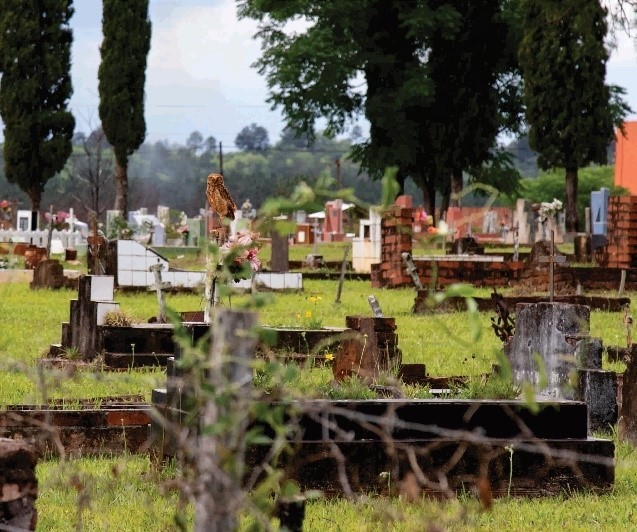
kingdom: Animalia
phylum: Chordata
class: Aves
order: Strigiformes
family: Strigidae
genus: Athene
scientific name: Athene cunicularia
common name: Burrowing owl
